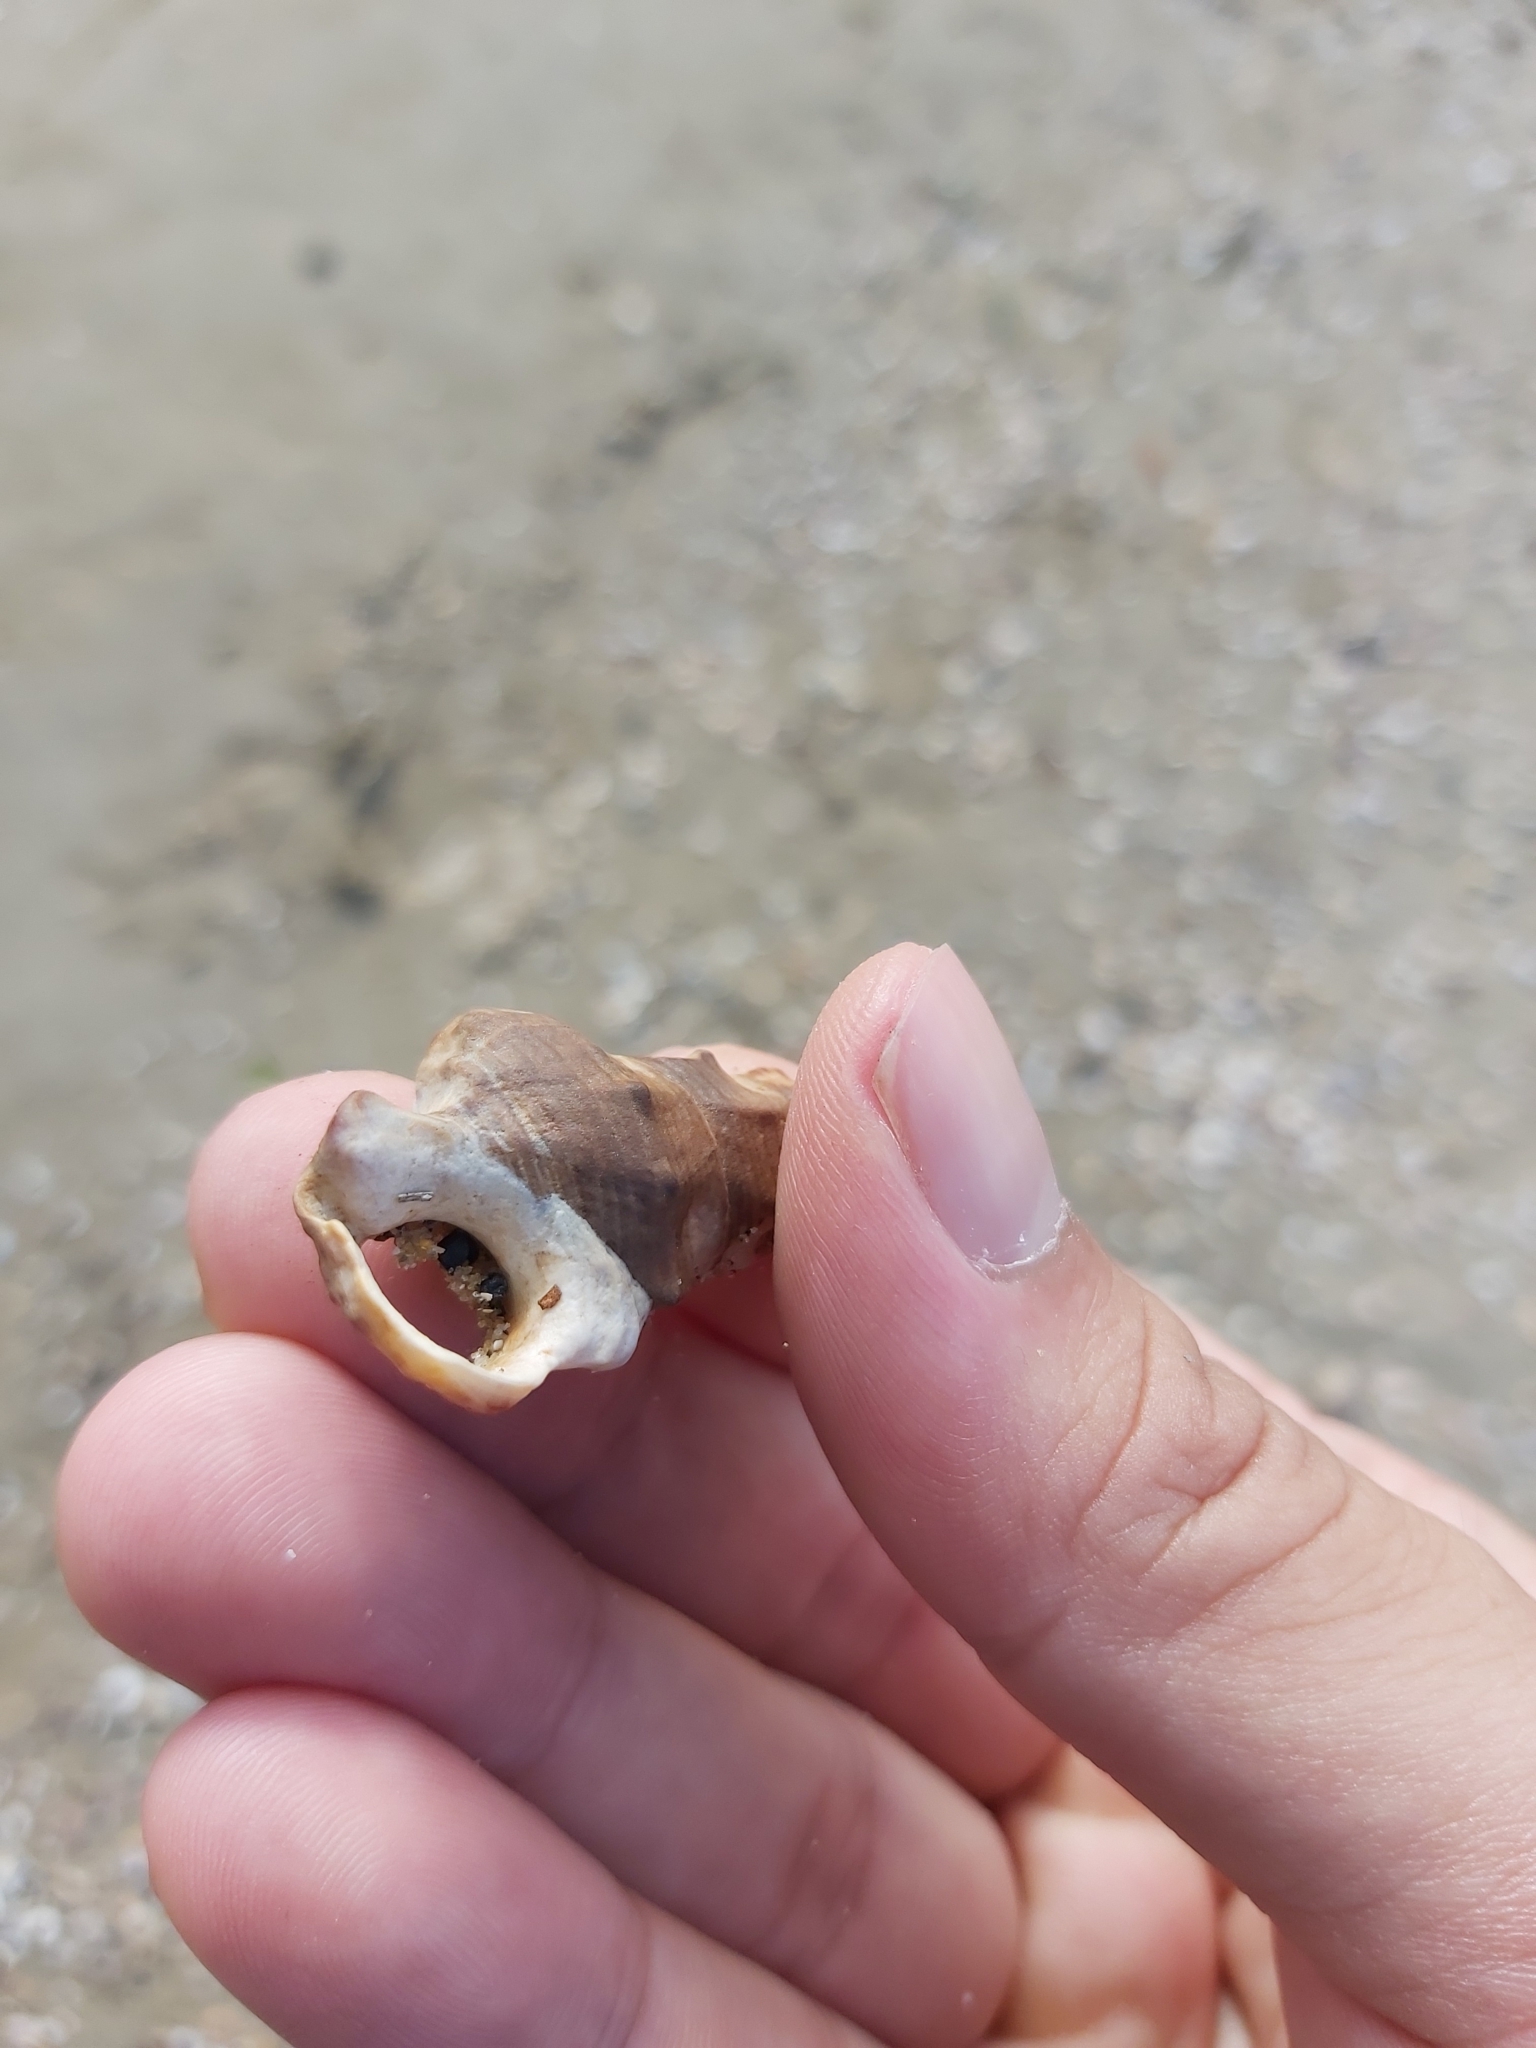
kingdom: Animalia
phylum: Mollusca
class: Gastropoda
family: Batillariidae
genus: Pyrazus
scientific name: Pyrazus ebeninus
